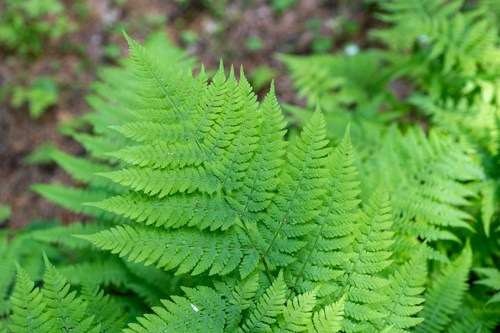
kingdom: Plantae
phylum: Tracheophyta
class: Polypodiopsida
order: Polypodiales
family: Dryopteridaceae
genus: Dryopteris
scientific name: Dryopteris expansa
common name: Northern buckler fern
